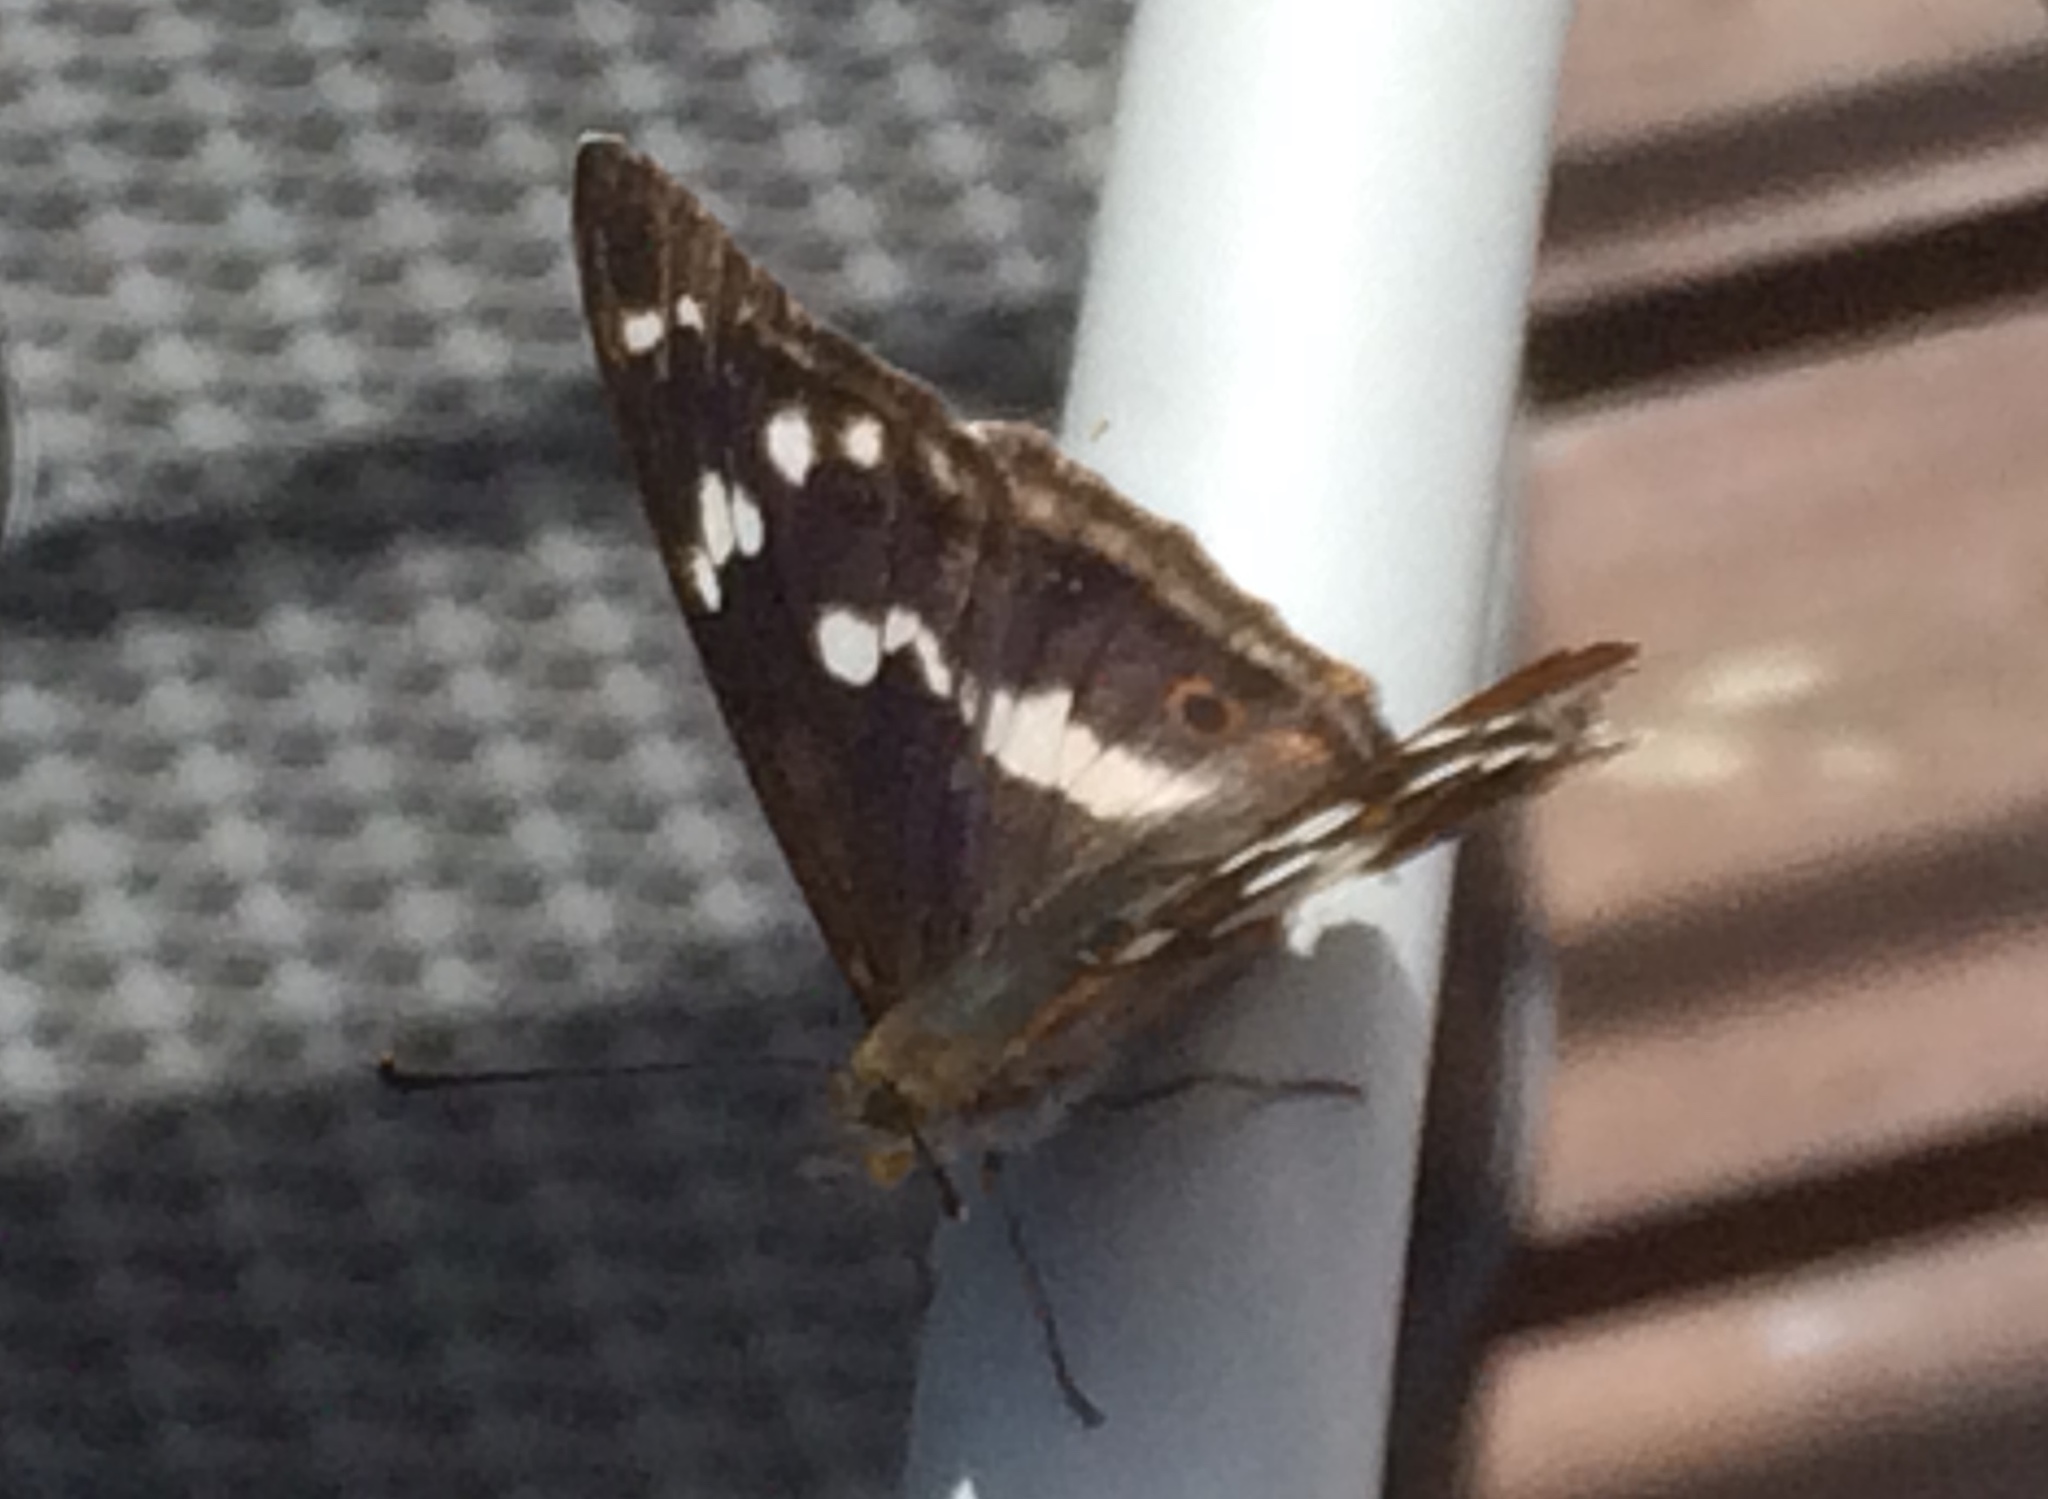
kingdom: Animalia
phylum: Arthropoda
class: Insecta
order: Lepidoptera
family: Nymphalidae
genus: Apatura
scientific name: Apatura iris
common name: Purple emperor
